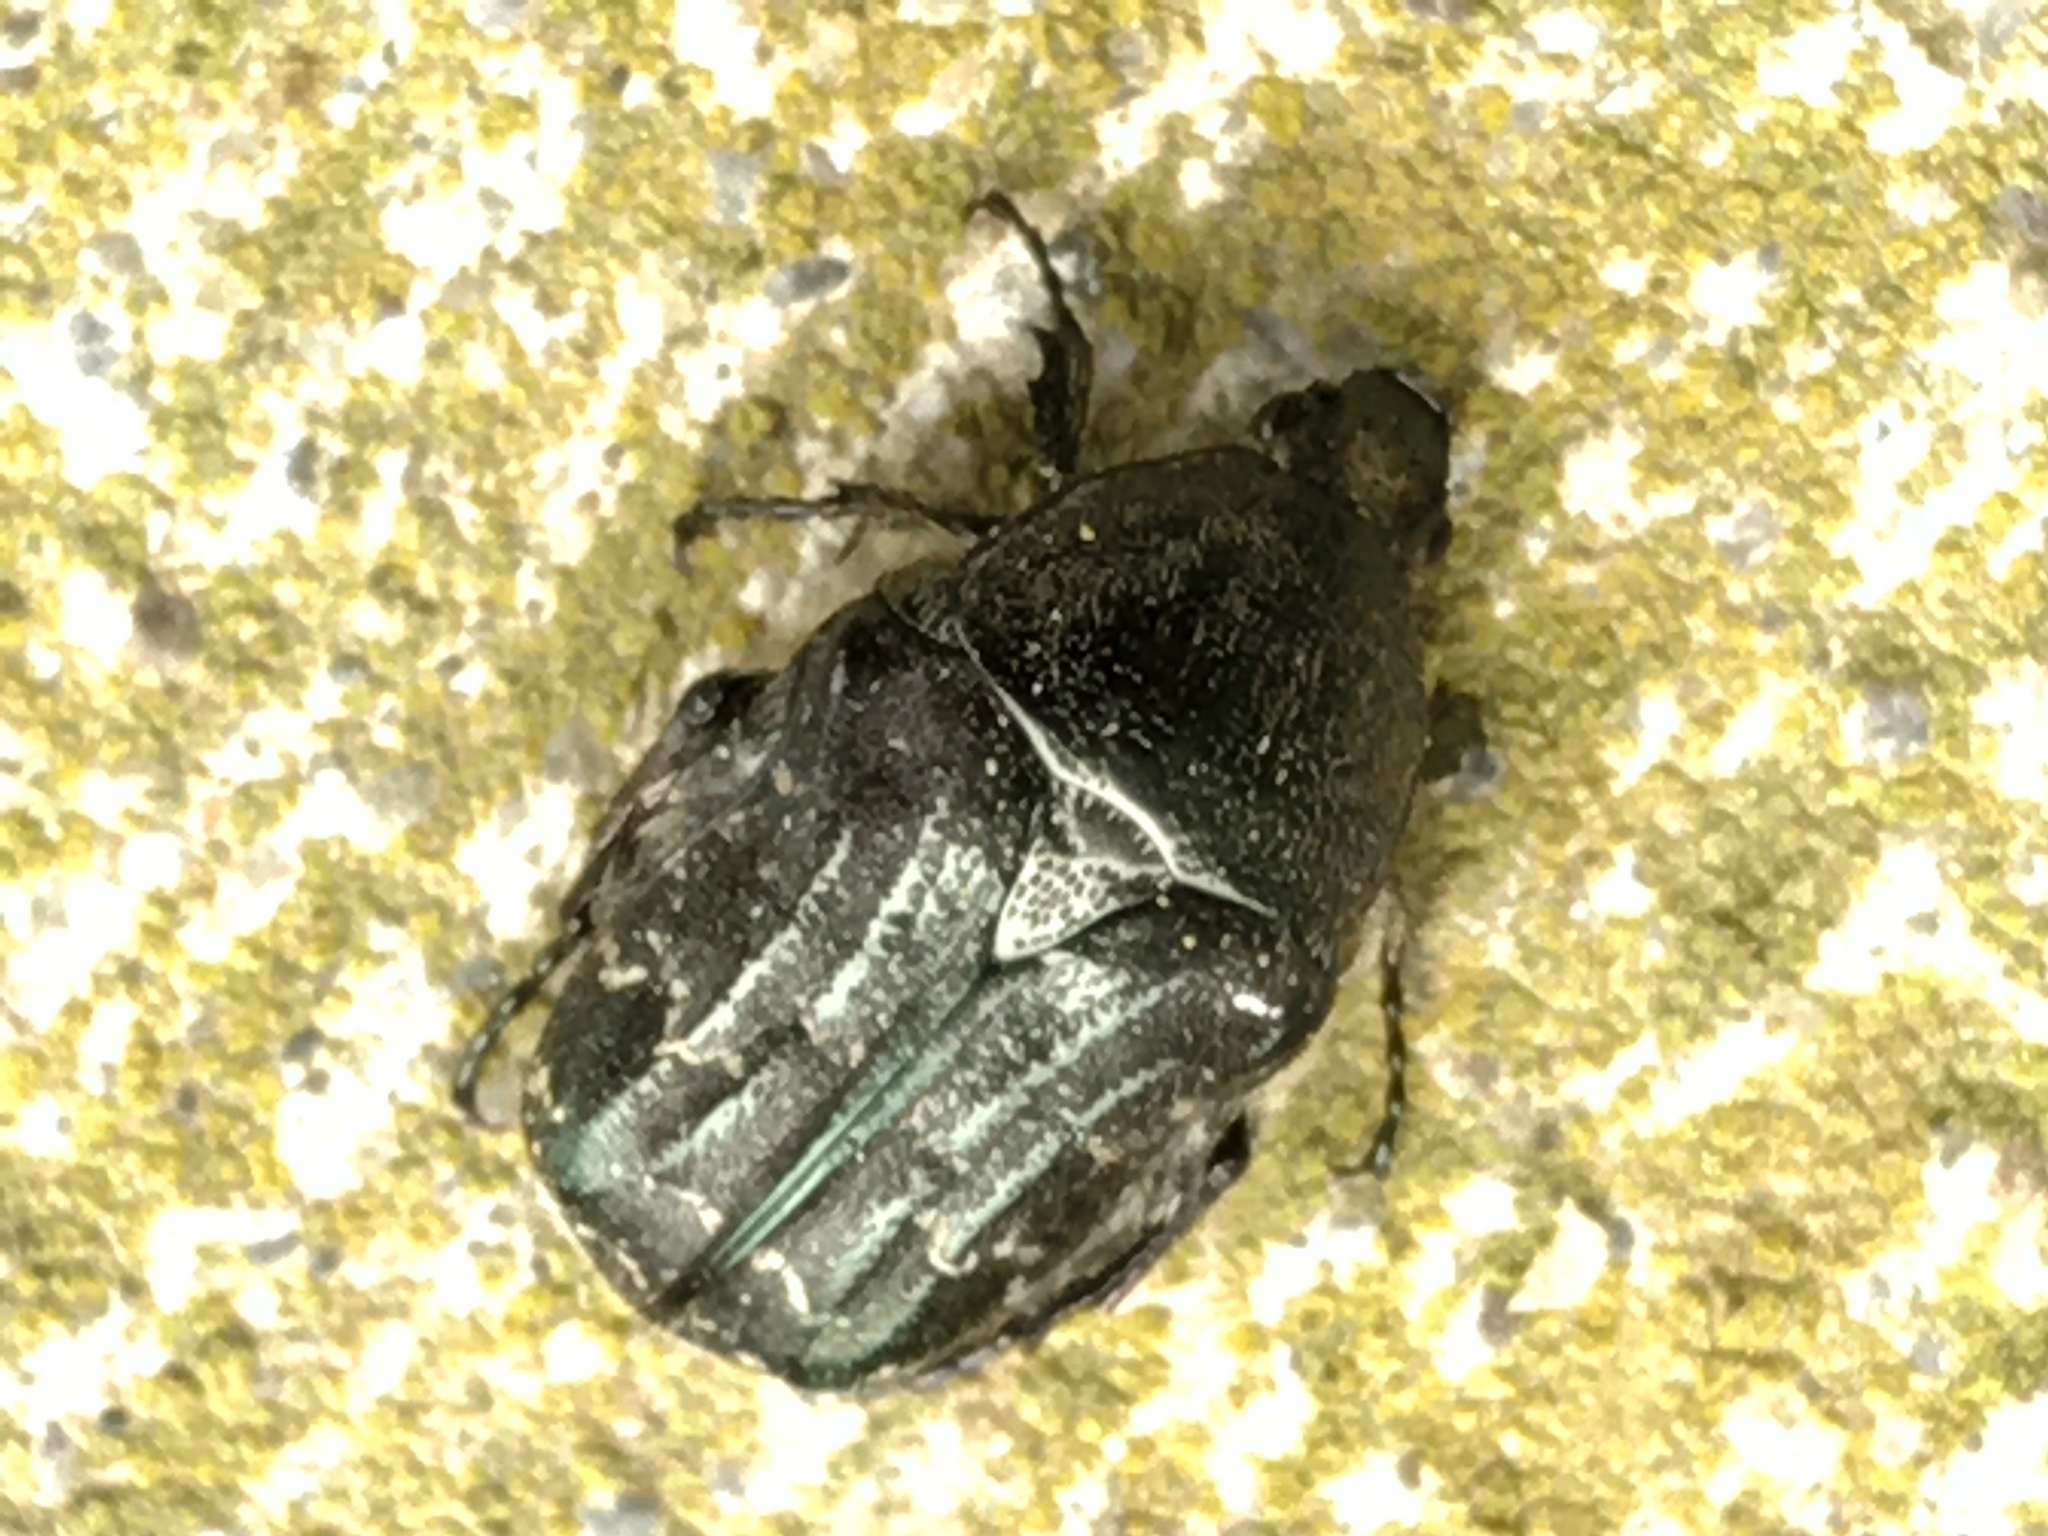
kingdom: Animalia
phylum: Arthropoda
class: Insecta
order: Coleoptera
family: Scarabaeidae
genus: Euphoria
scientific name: Euphoria sepulcralis
